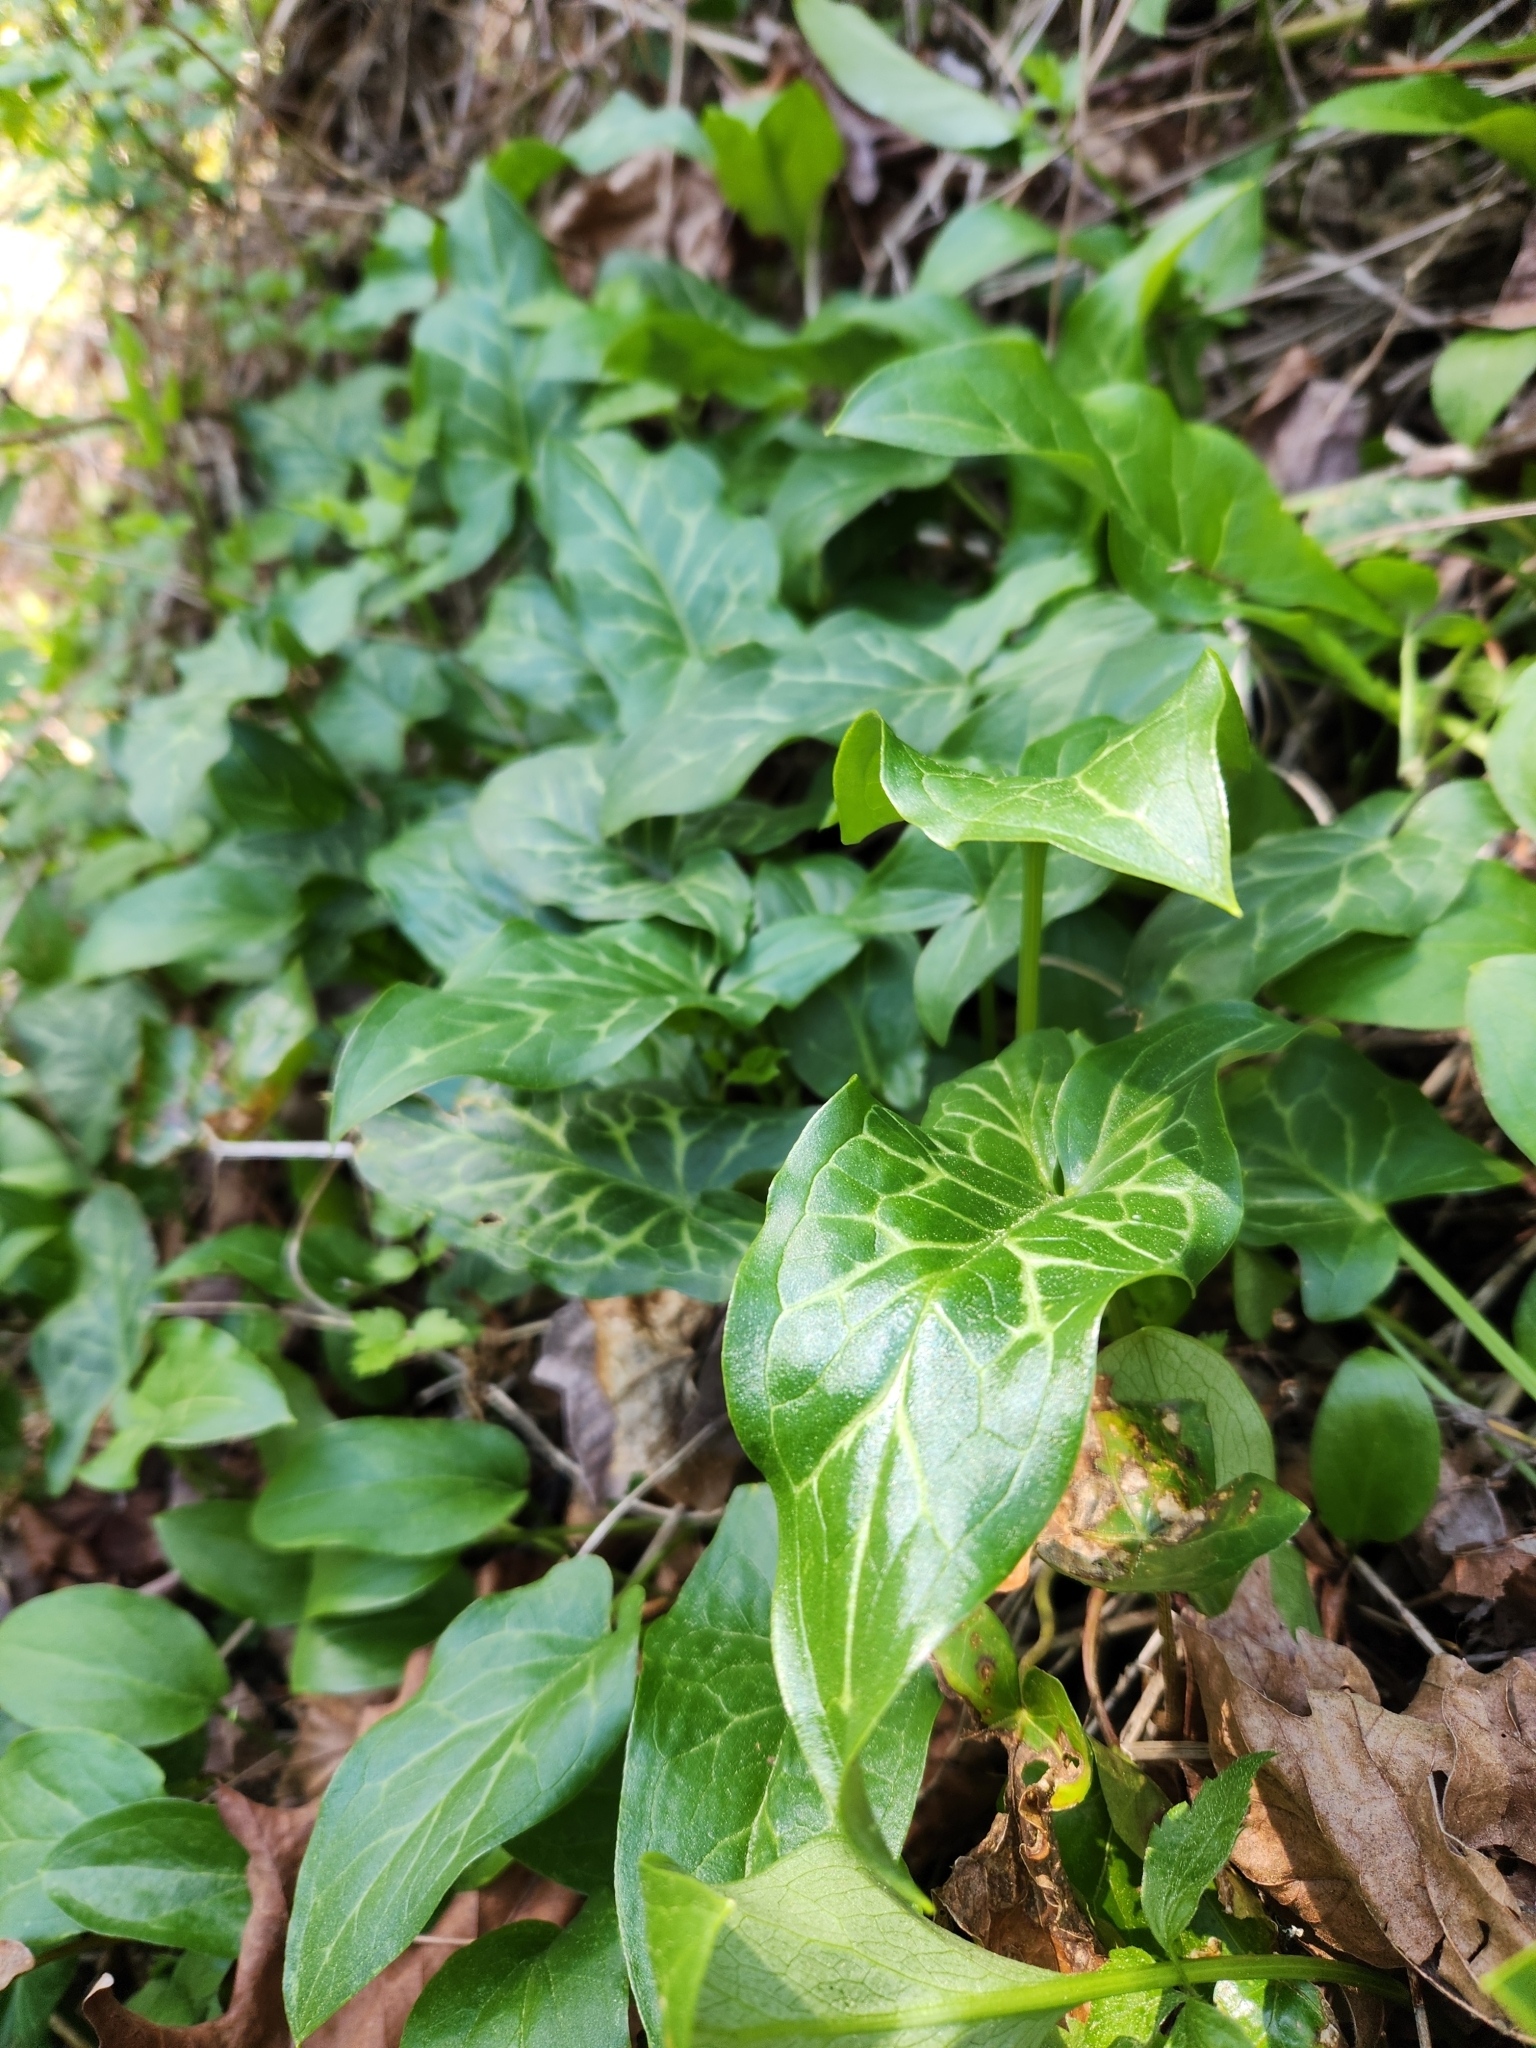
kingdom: Plantae
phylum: Tracheophyta
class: Liliopsida
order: Alismatales
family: Araceae
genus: Arum
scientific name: Arum italicum
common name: Italian lords-and-ladies
